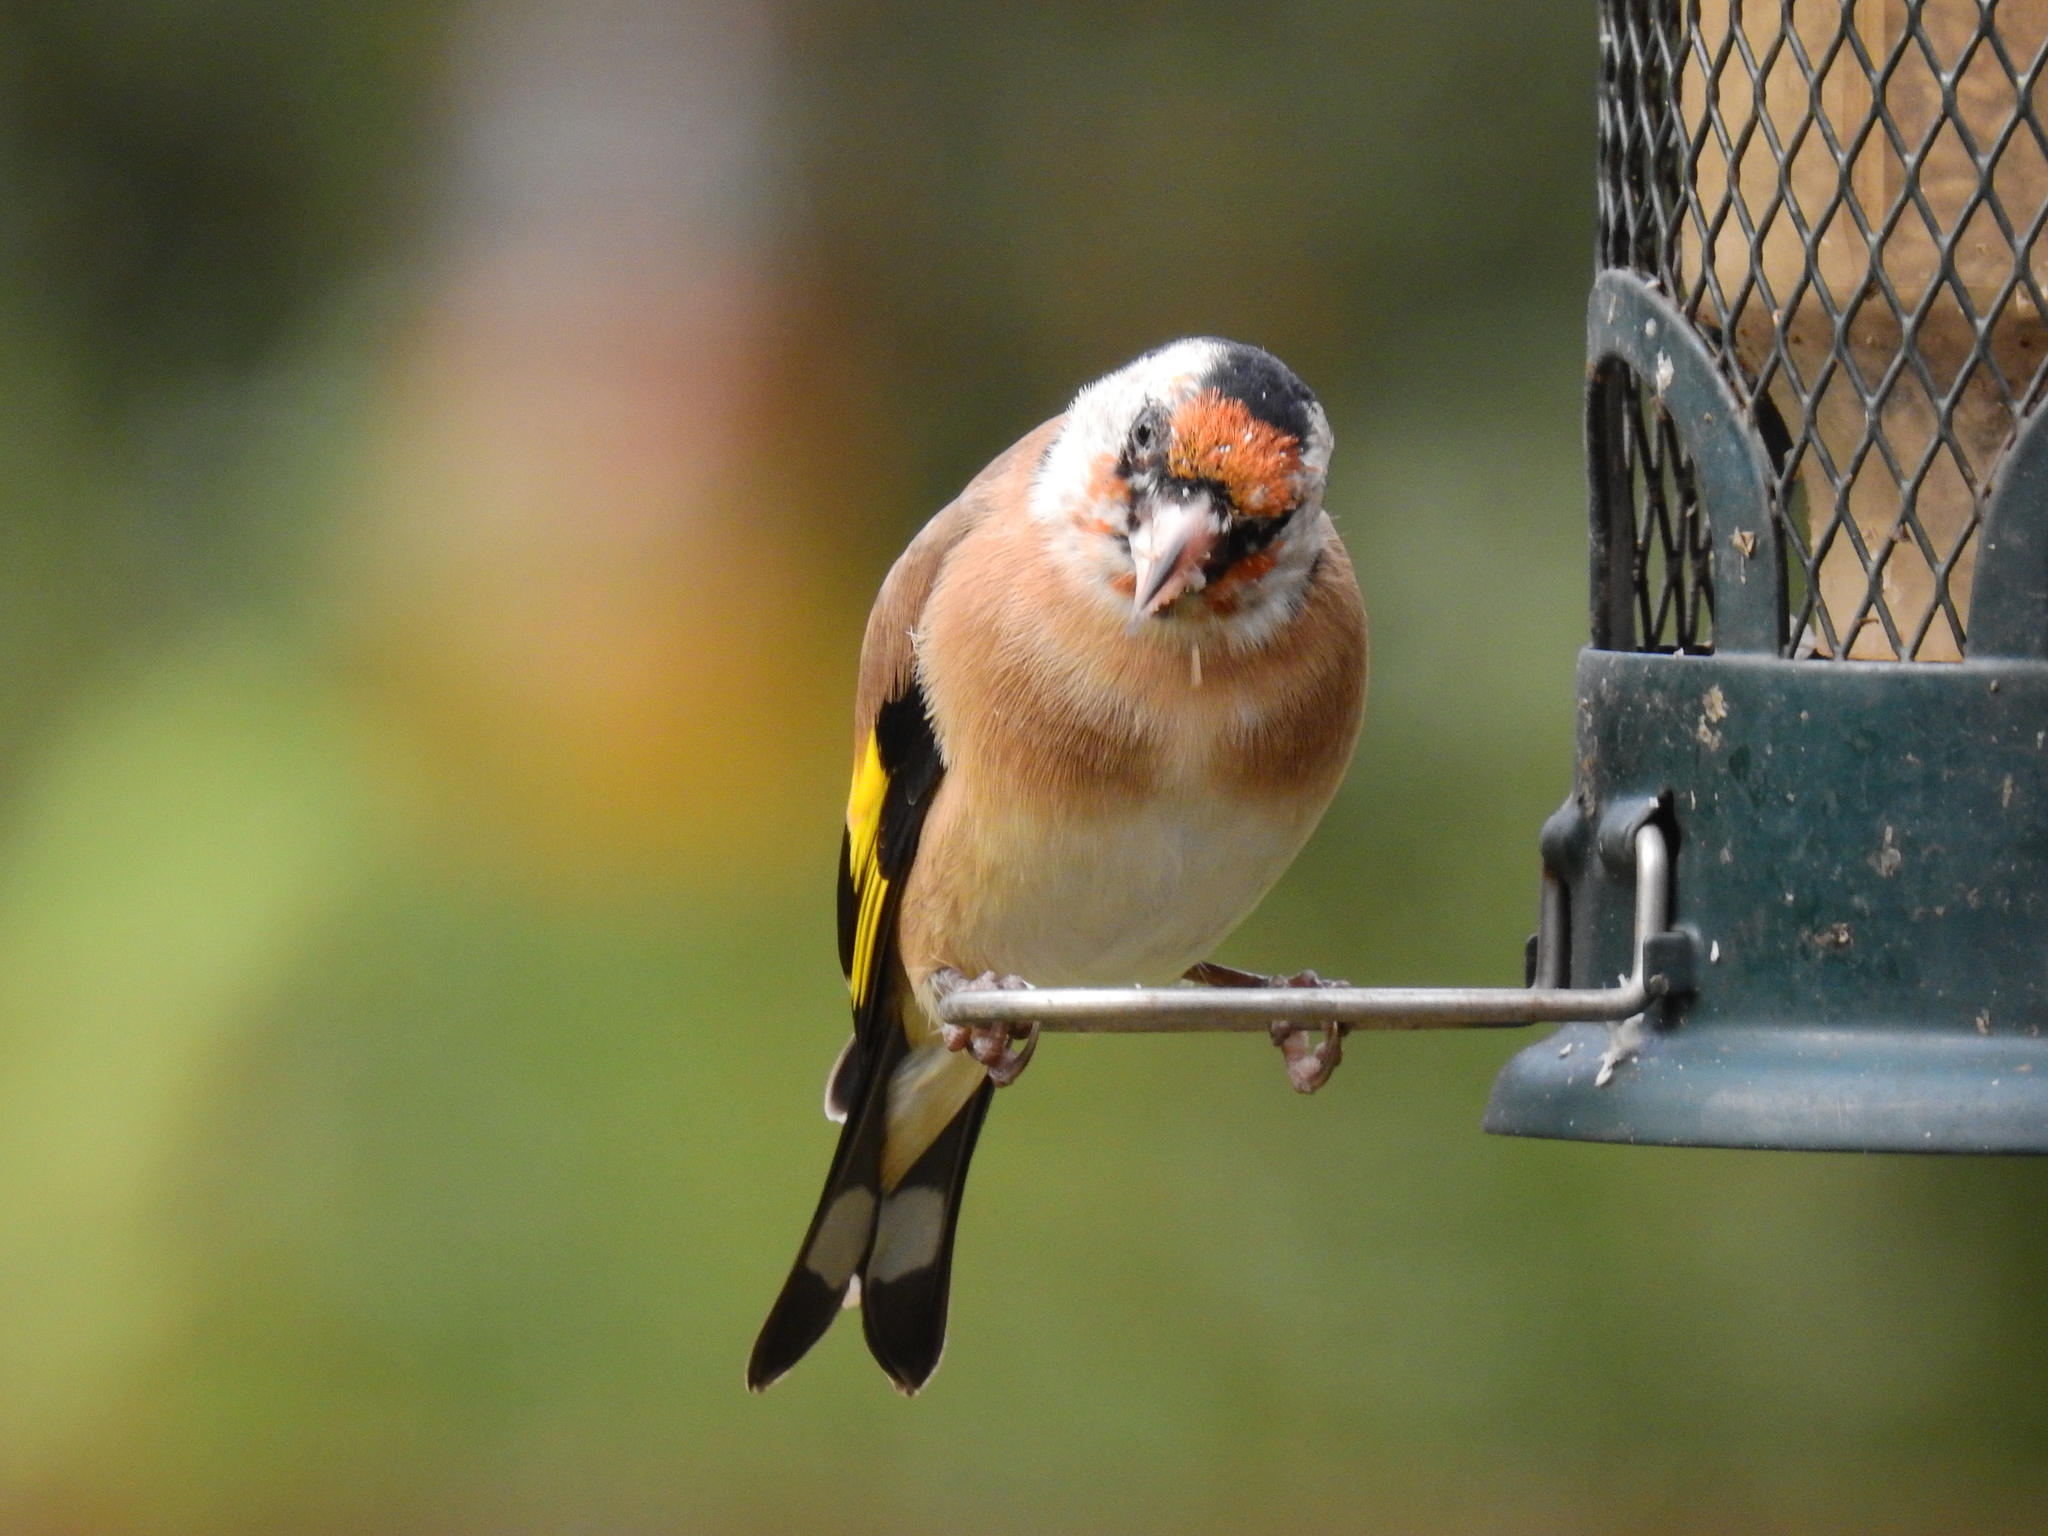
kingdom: Animalia
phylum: Chordata
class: Aves
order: Passeriformes
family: Fringillidae
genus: Carduelis
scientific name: Carduelis carduelis
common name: European goldfinch
